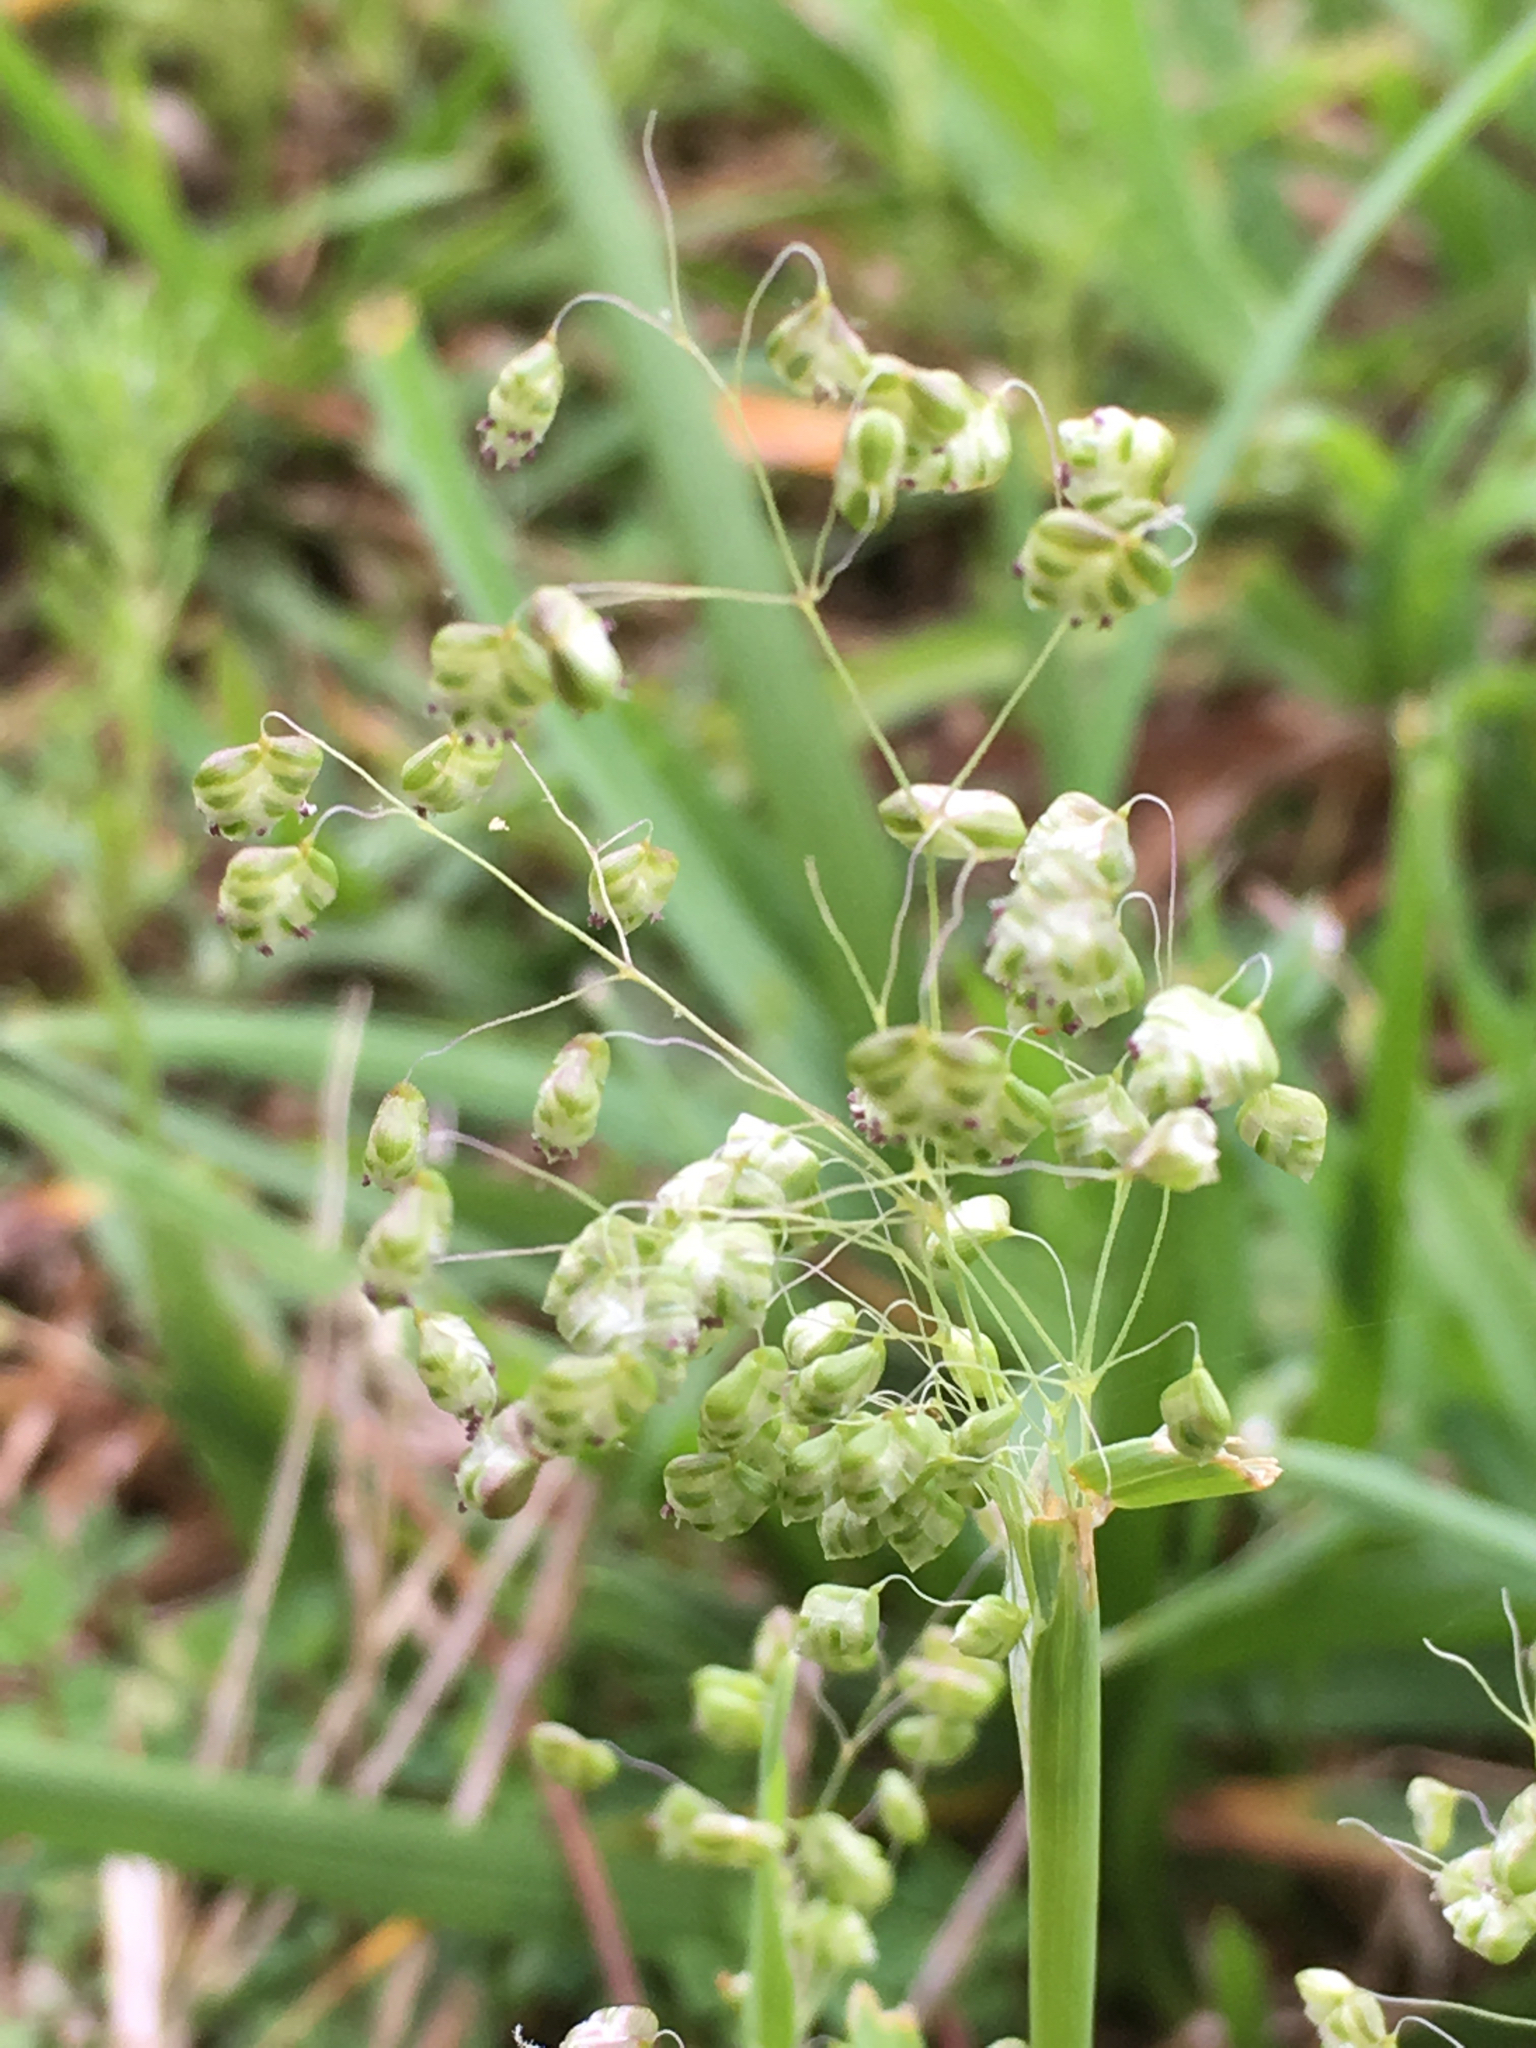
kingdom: Plantae
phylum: Tracheophyta
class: Liliopsida
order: Poales
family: Poaceae
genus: Briza
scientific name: Briza minor
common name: Lesser quaking-grass
